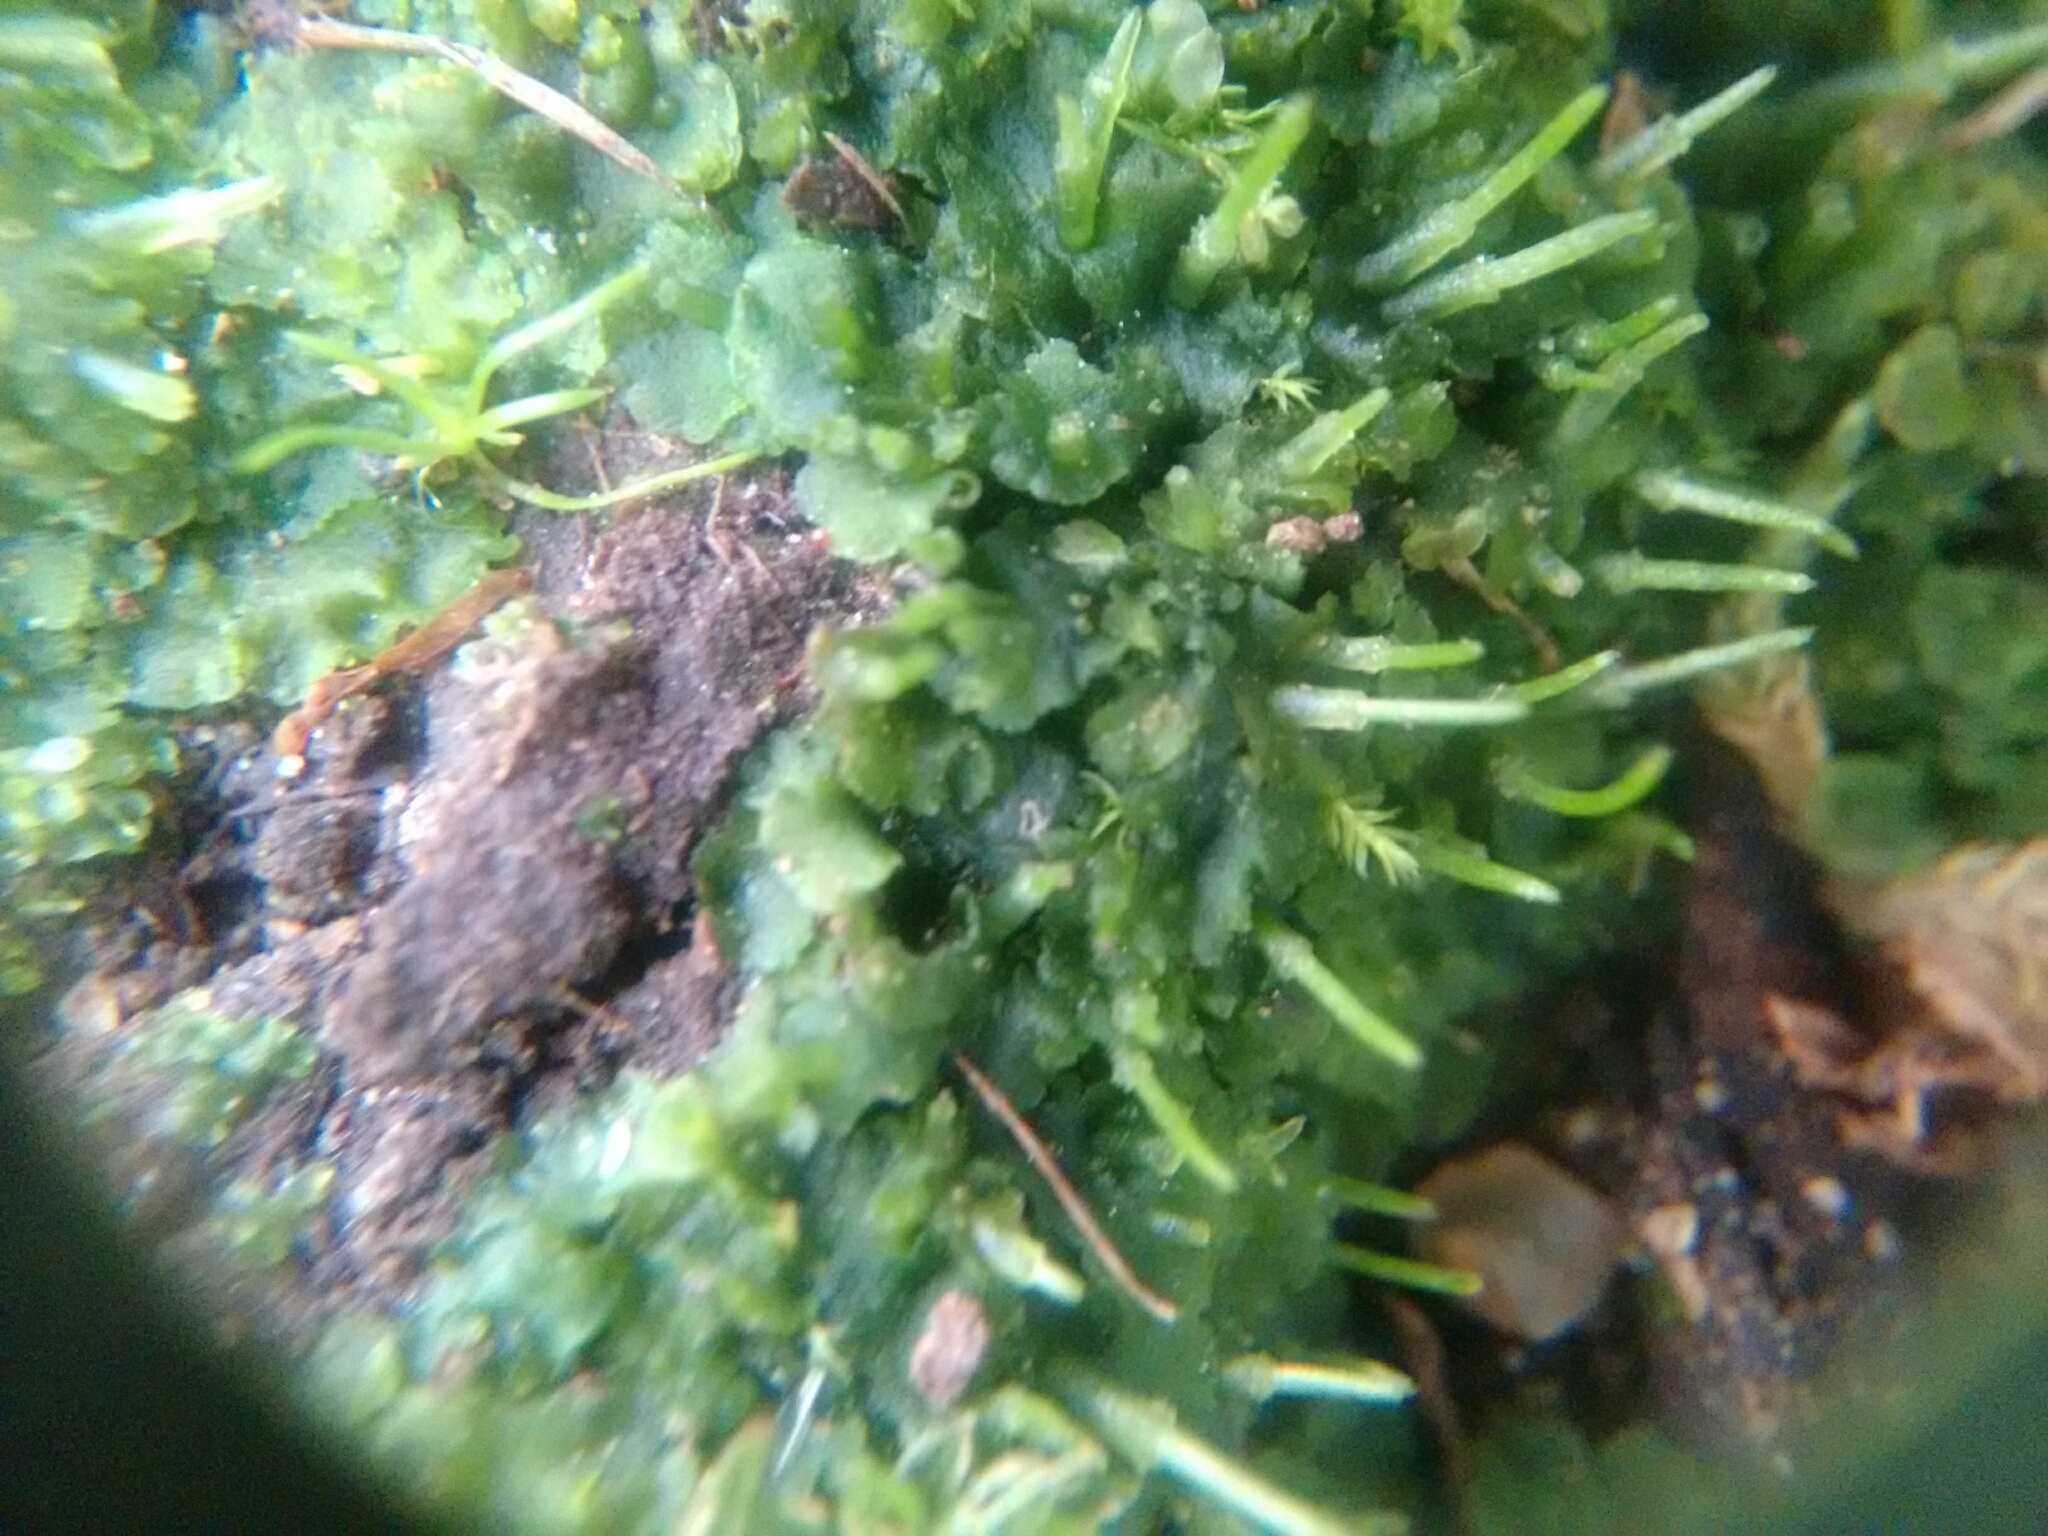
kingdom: Plantae
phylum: Anthocerotophyta
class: Anthocerotopsida
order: Notothyladales
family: Notothyladaceae
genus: Phaeoceros
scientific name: Phaeoceros carolinianus
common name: Carolina hornwort
